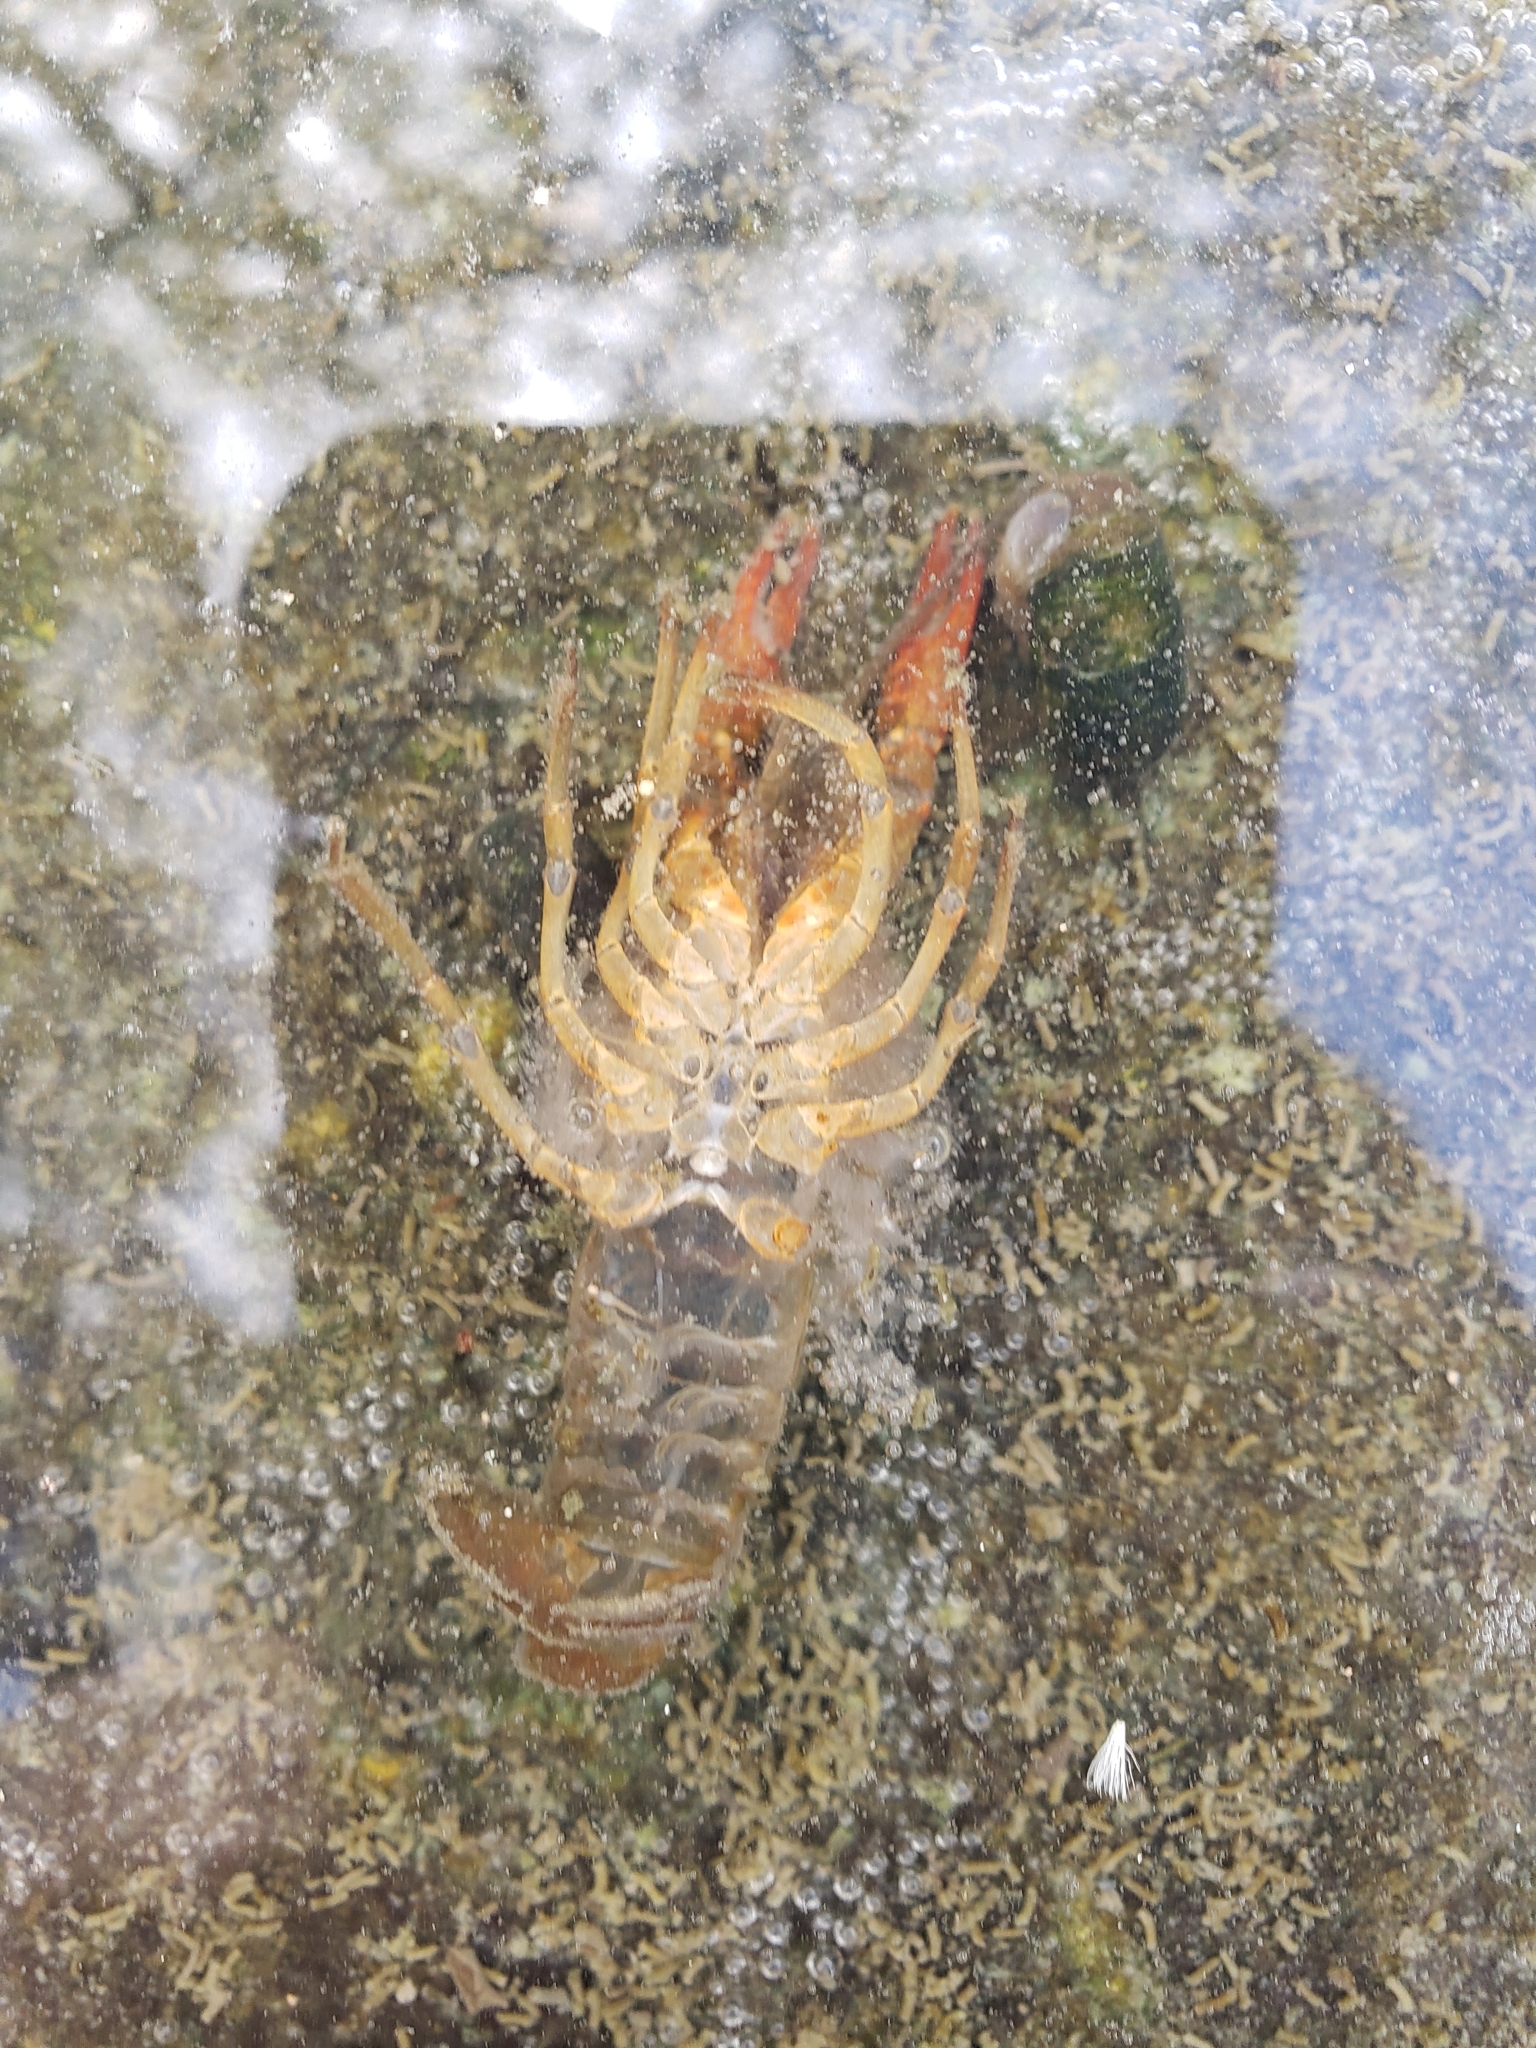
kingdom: Animalia
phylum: Arthropoda
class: Malacostraca
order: Decapoda
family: Cambaridae
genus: Procambarus
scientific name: Procambarus clarkii
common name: Red swamp crayfish
